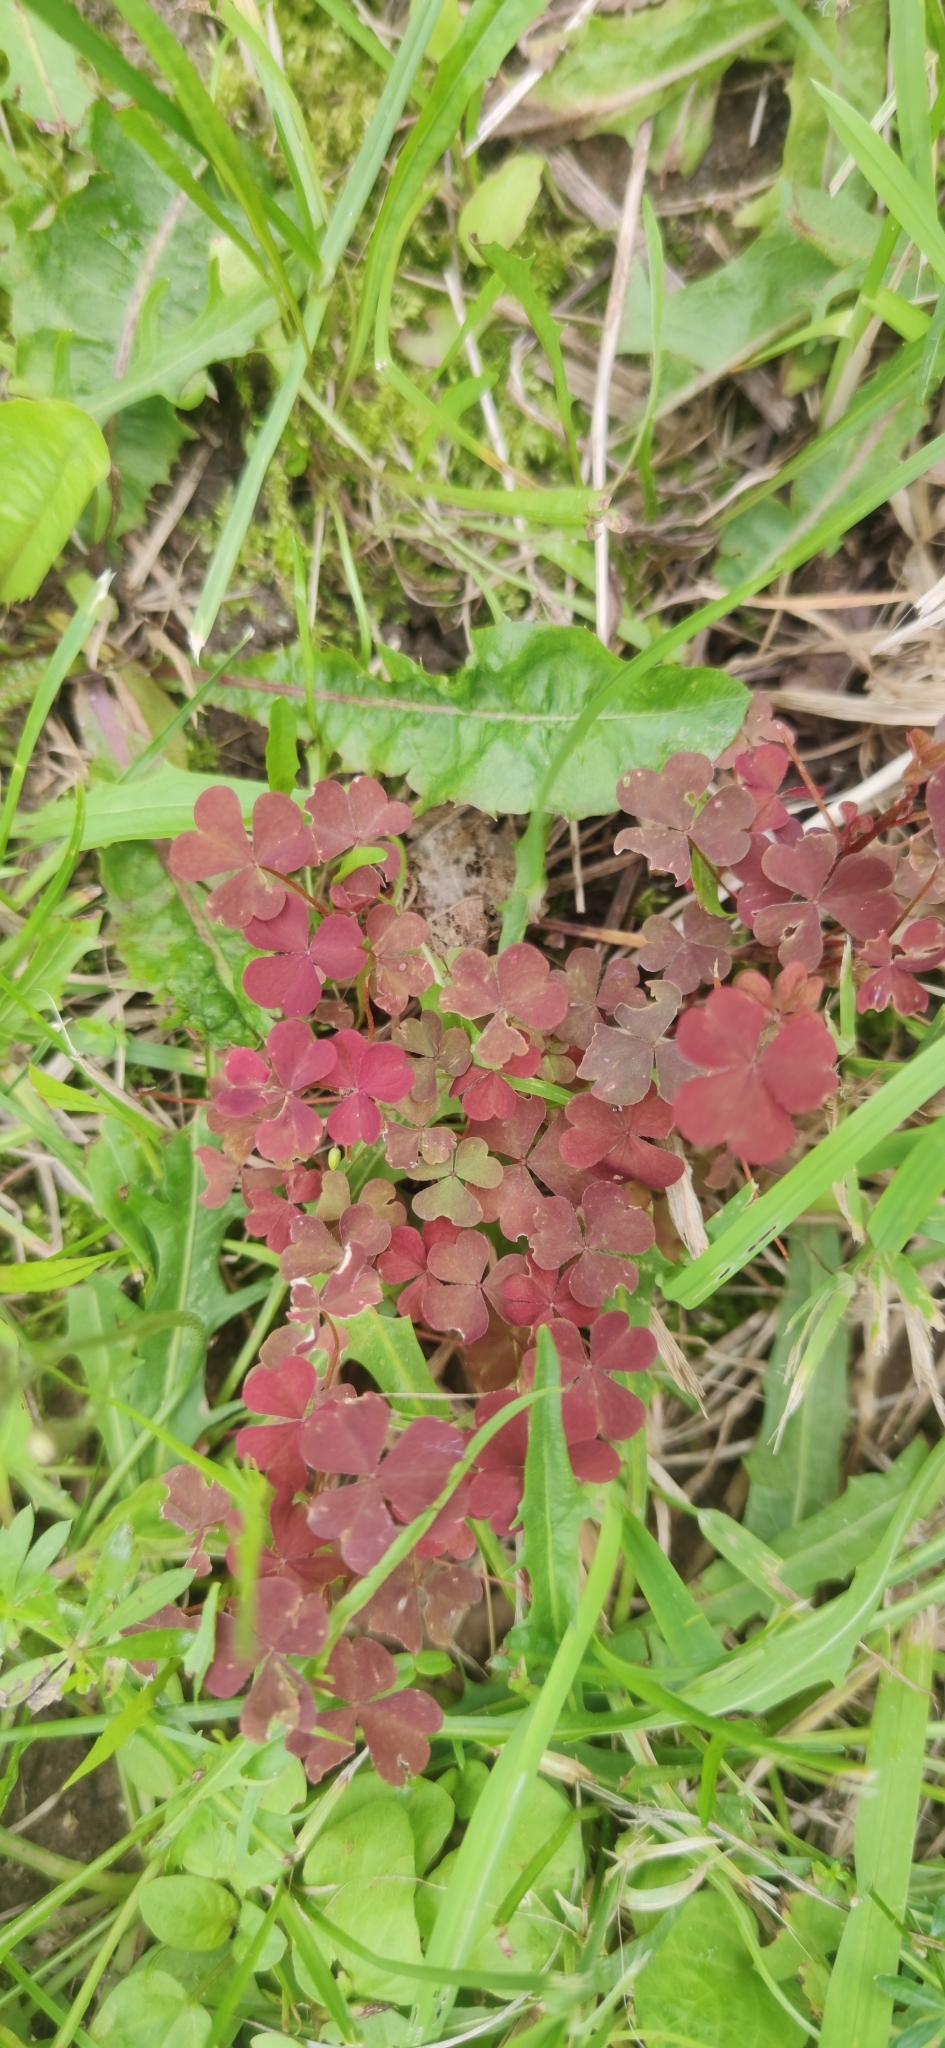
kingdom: Plantae
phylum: Tracheophyta
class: Magnoliopsida
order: Oxalidales
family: Oxalidaceae
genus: Oxalis
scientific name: Oxalis stricta
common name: Upright yellow-sorrel
